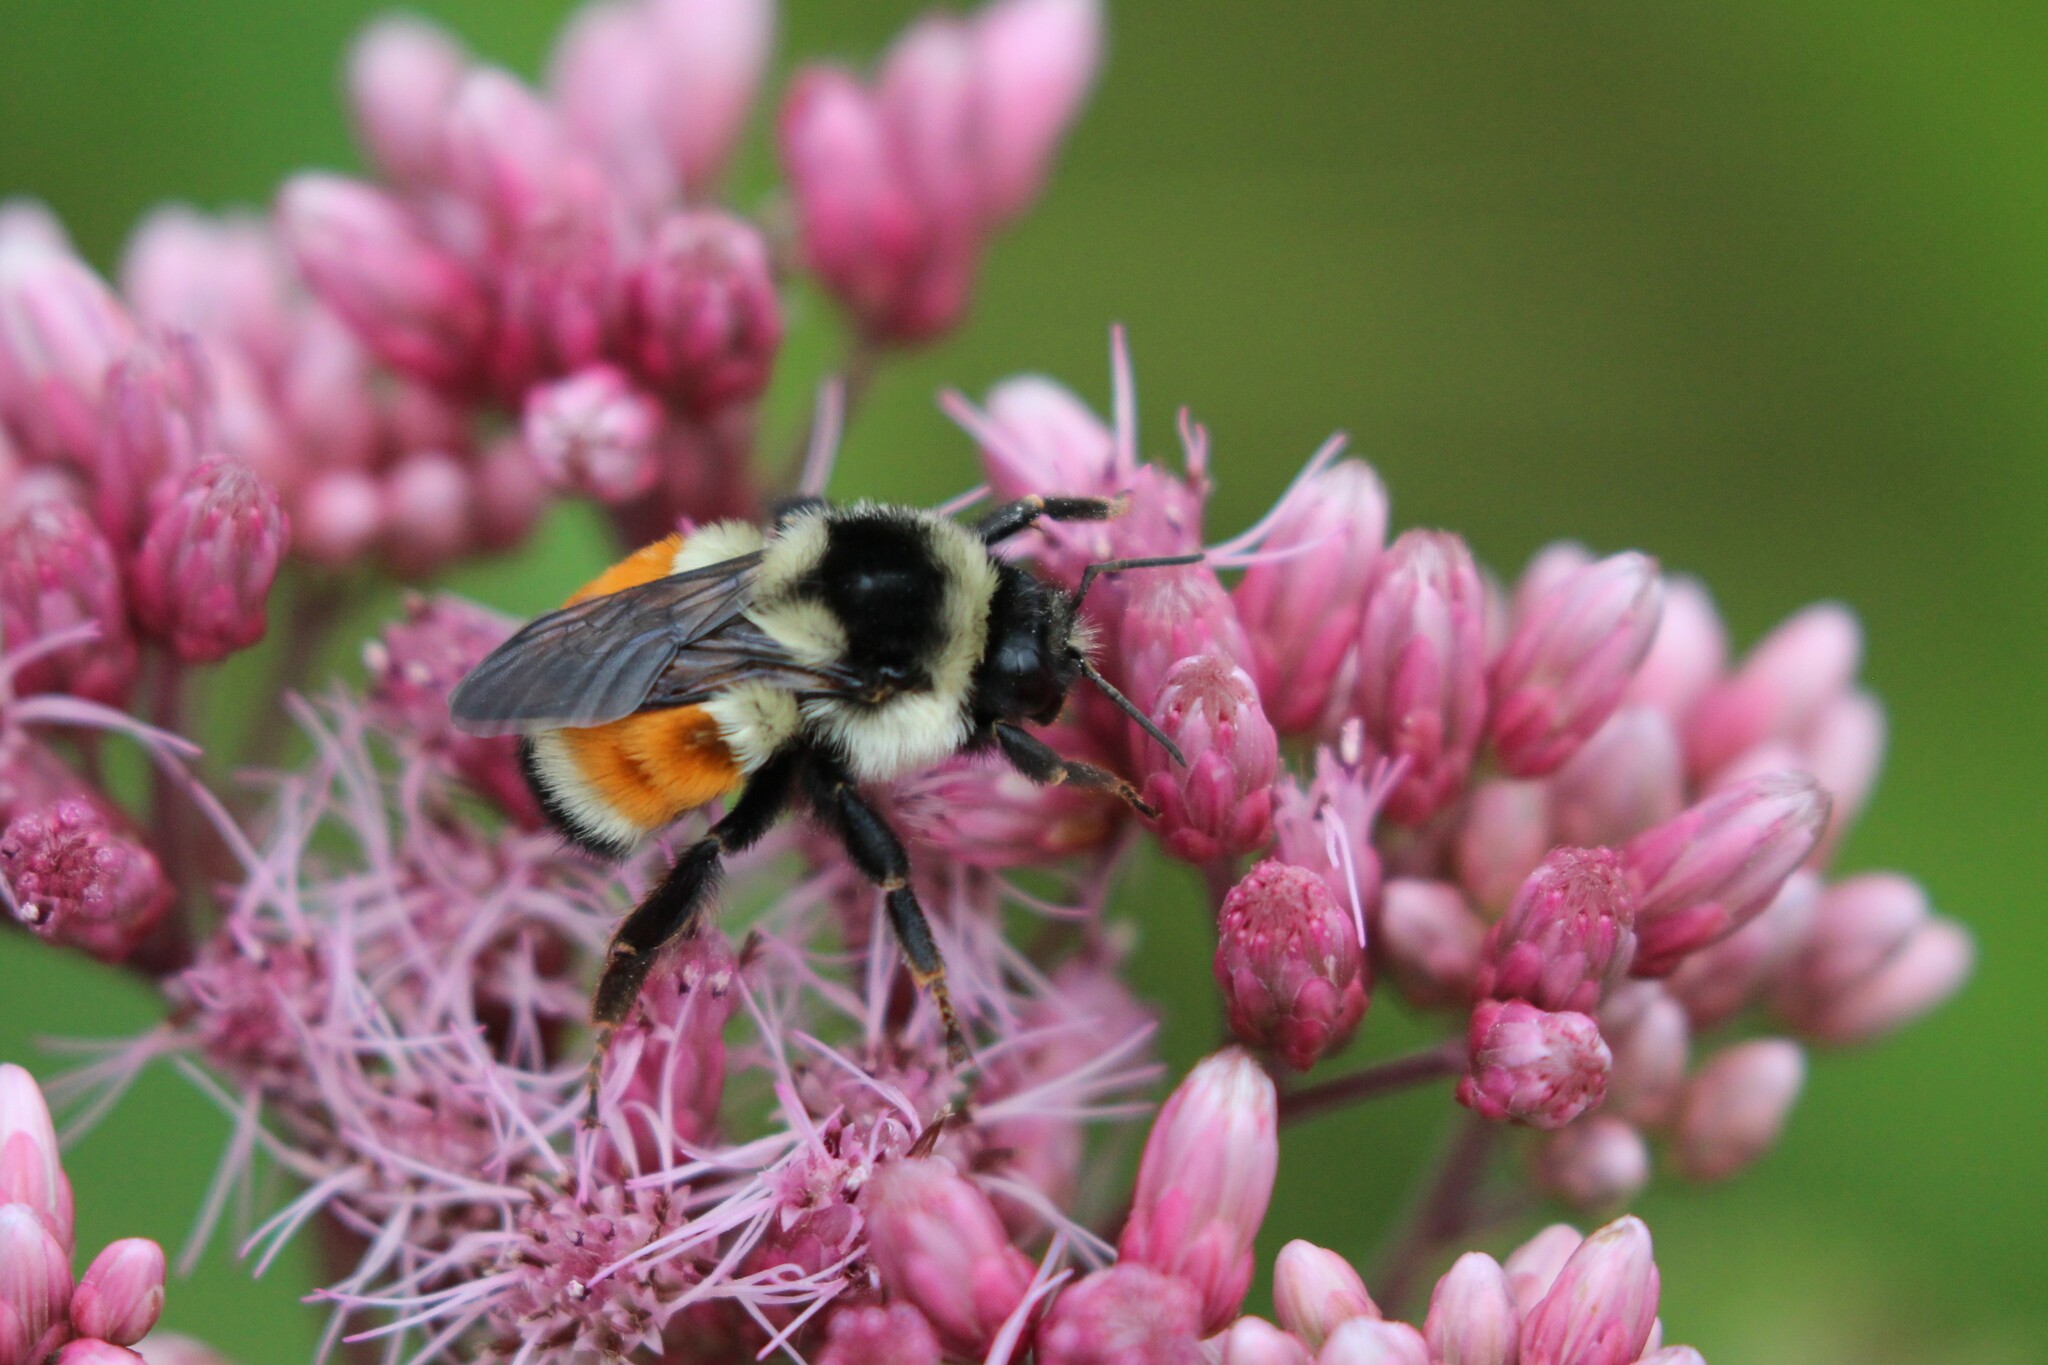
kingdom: Animalia
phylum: Arthropoda
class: Insecta
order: Hymenoptera
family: Apidae
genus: Bombus
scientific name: Bombus ternarius
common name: Tri-colored bumble bee
